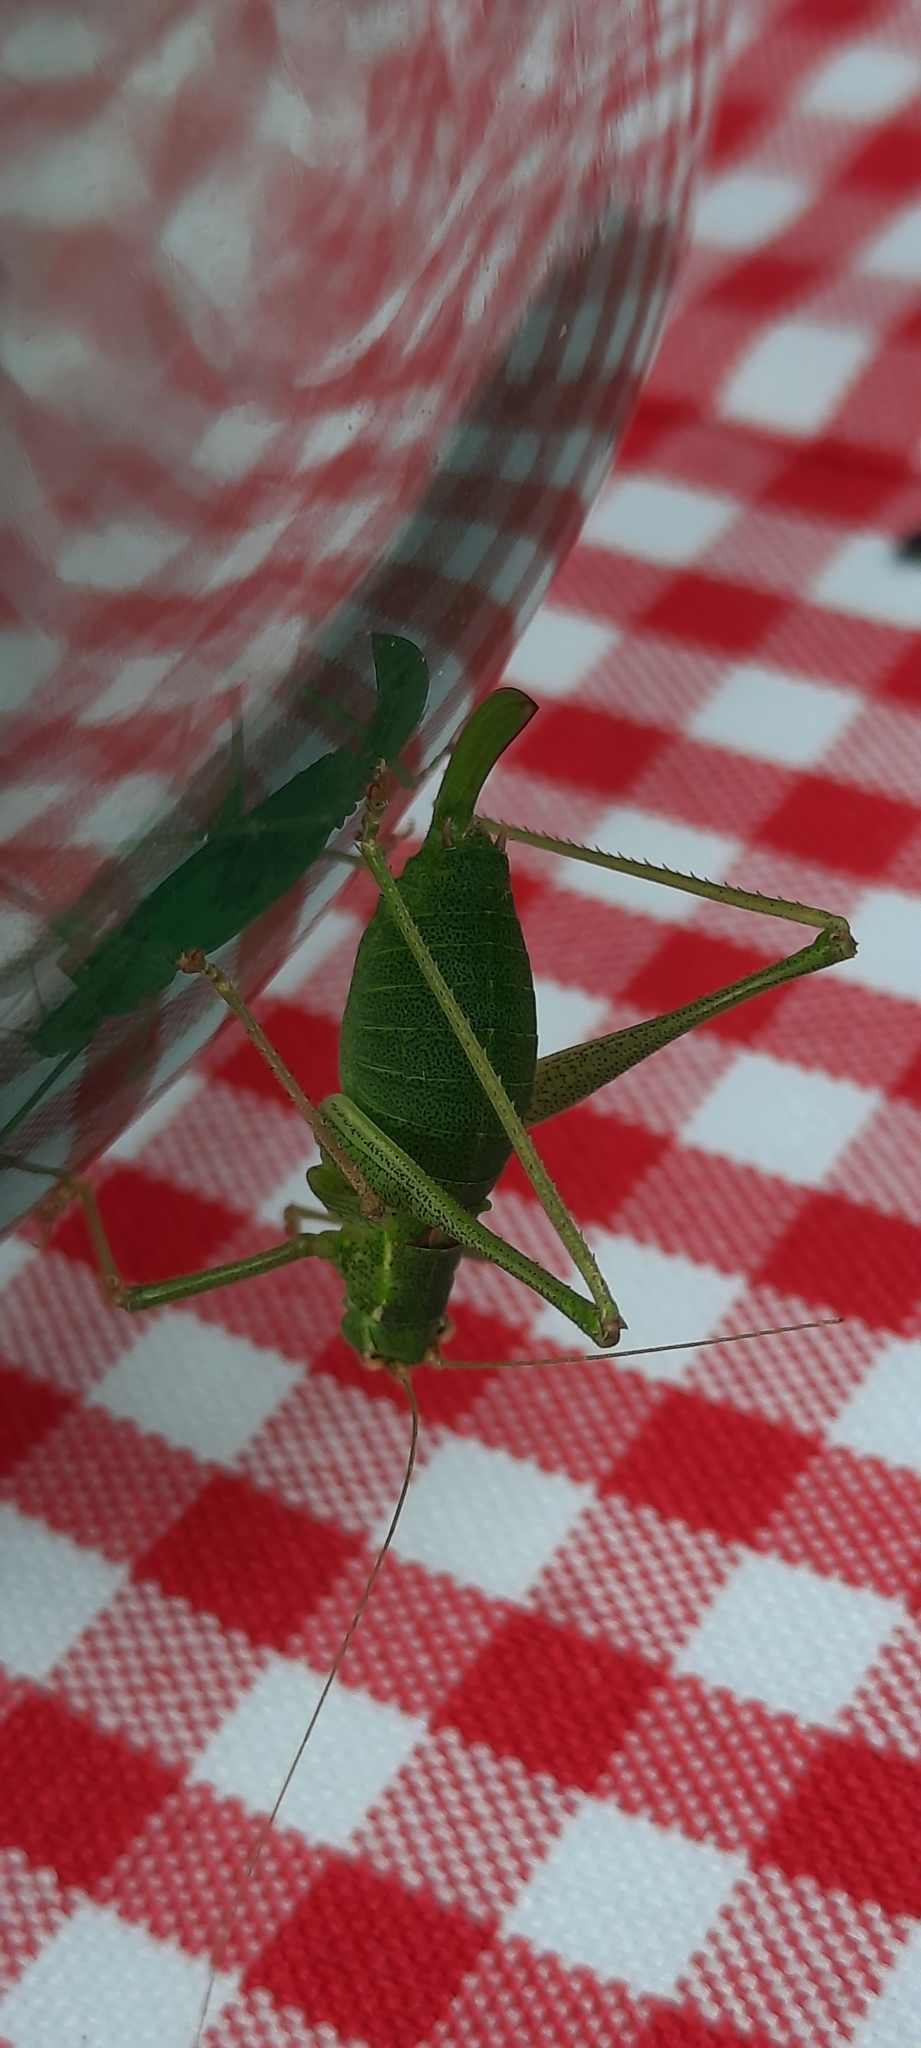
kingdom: Animalia
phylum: Arthropoda
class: Insecta
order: Orthoptera
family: Tettigoniidae
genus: Leptophyes
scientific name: Leptophyes punctatissima
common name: Speckled bush-cricket
